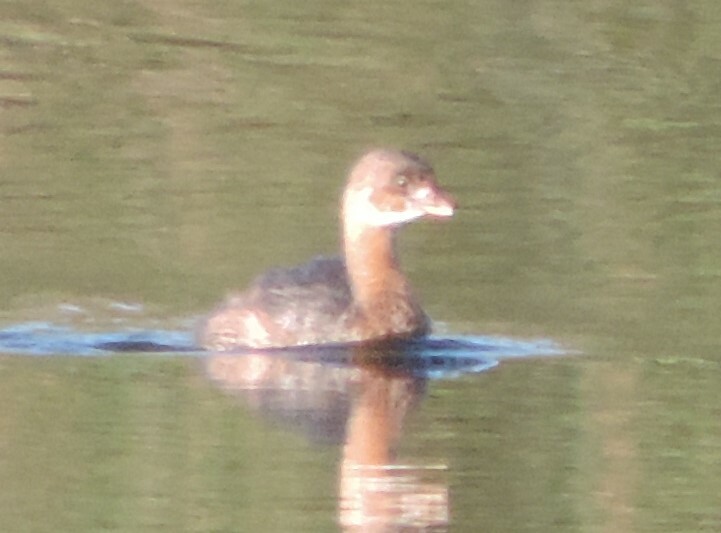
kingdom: Animalia
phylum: Chordata
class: Aves
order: Podicipediformes
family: Podicipedidae
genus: Podilymbus
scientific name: Podilymbus podiceps
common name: Pied-billed grebe
